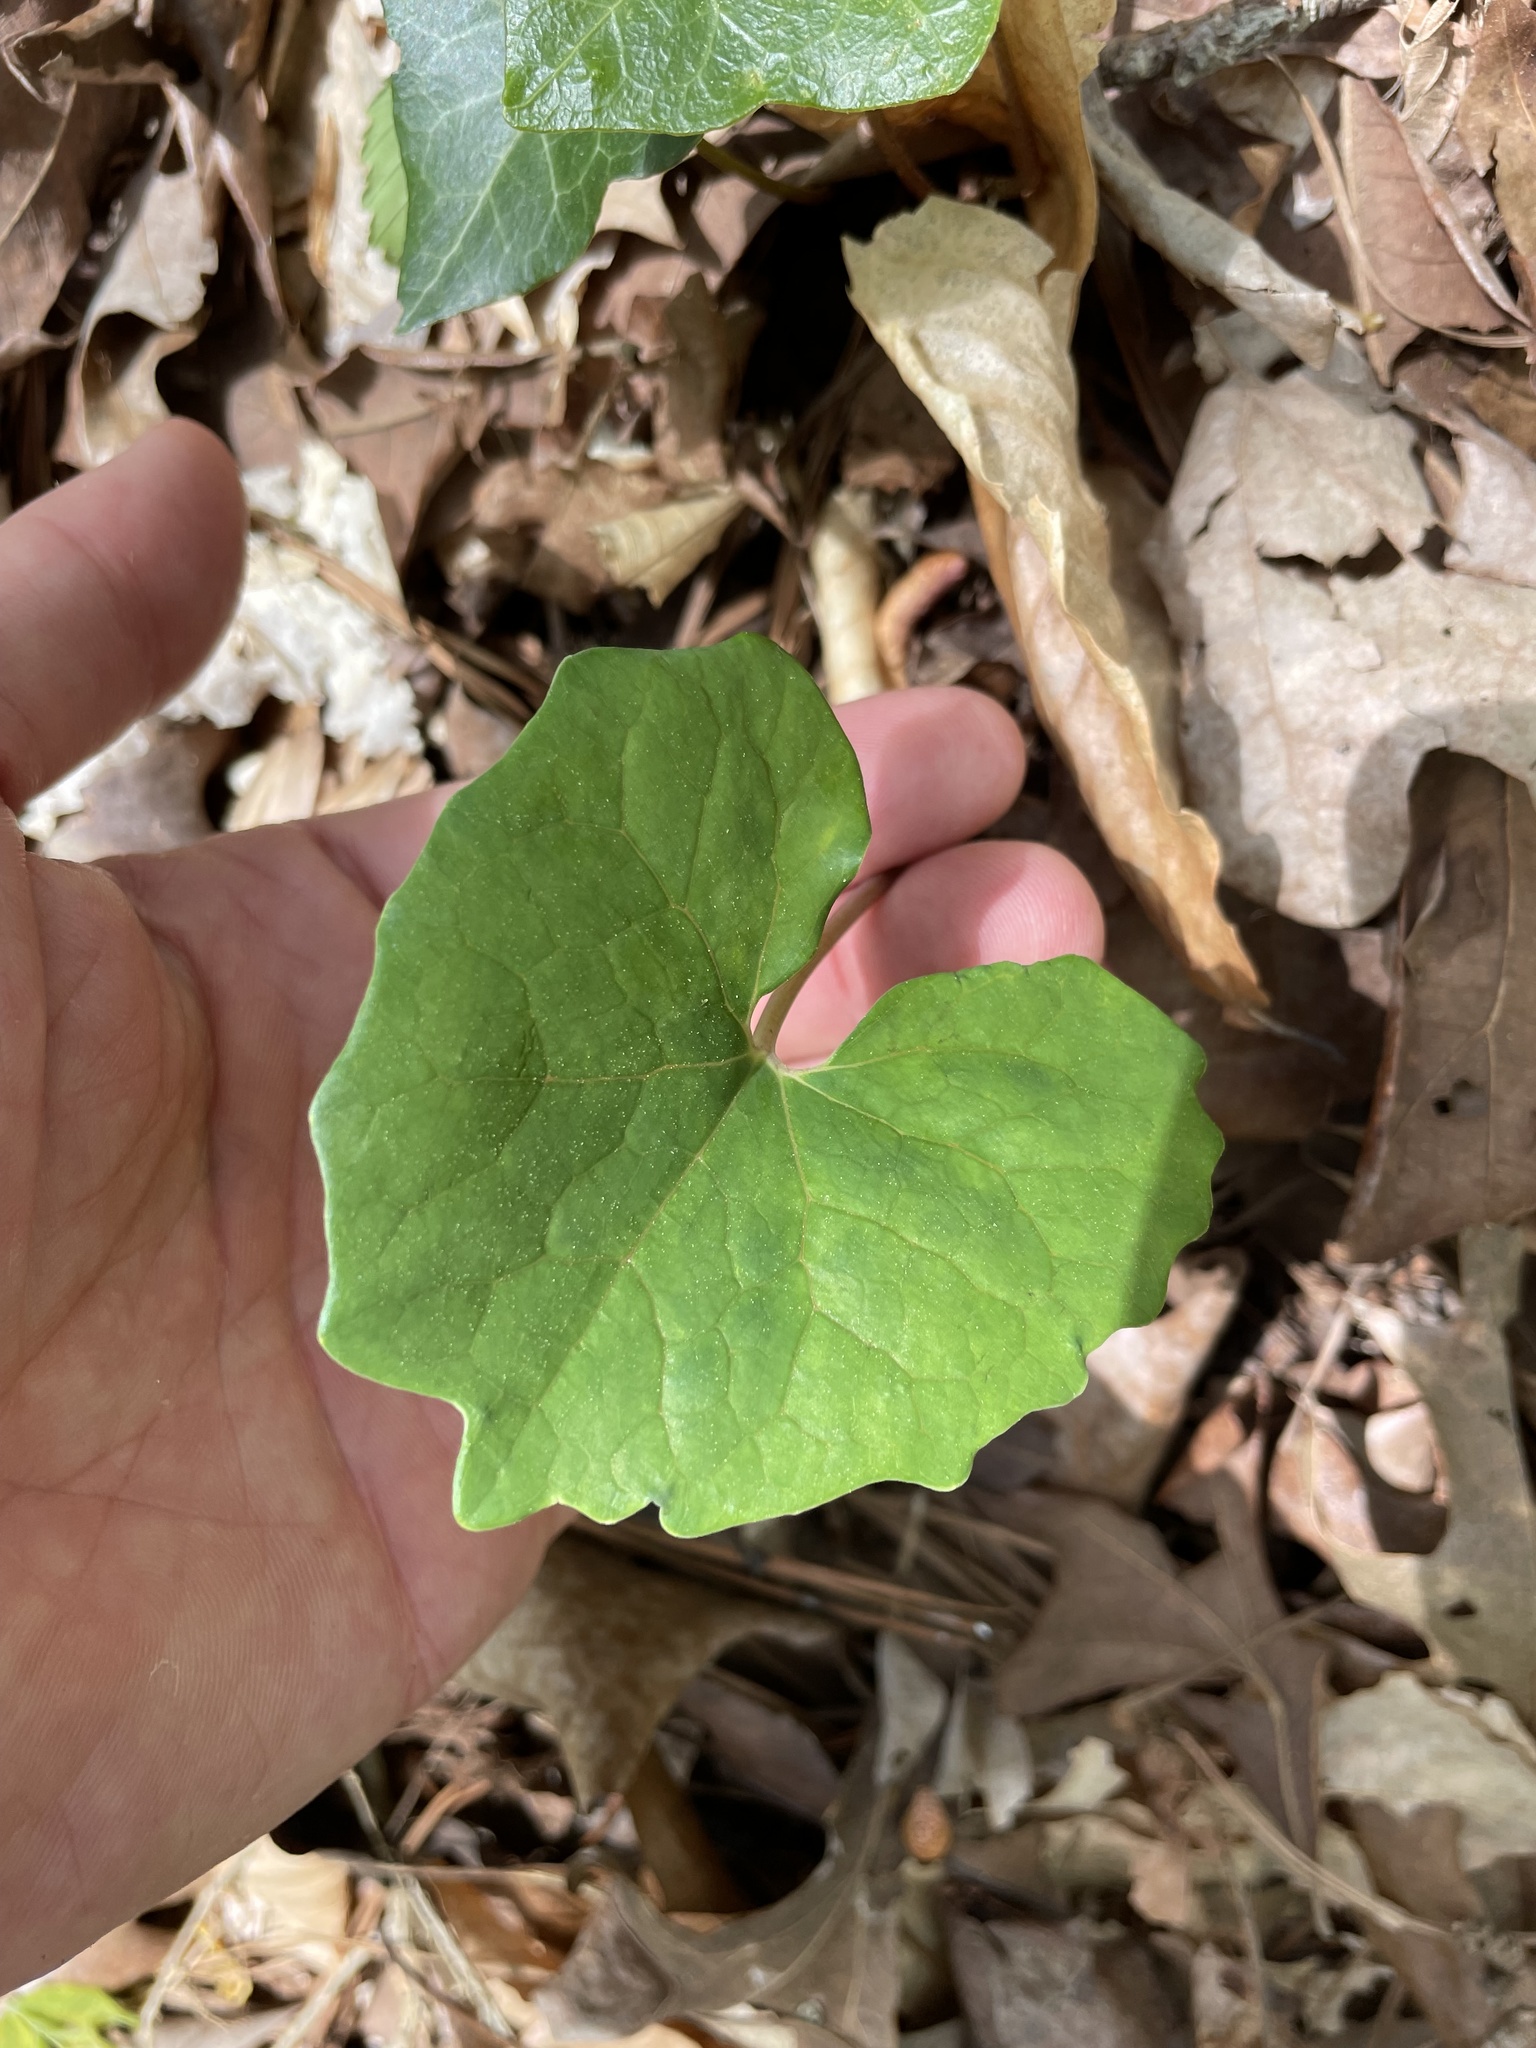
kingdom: Plantae
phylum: Tracheophyta
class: Magnoliopsida
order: Ranunculales
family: Papaveraceae
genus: Sanguinaria
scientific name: Sanguinaria canadensis
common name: Bloodroot
